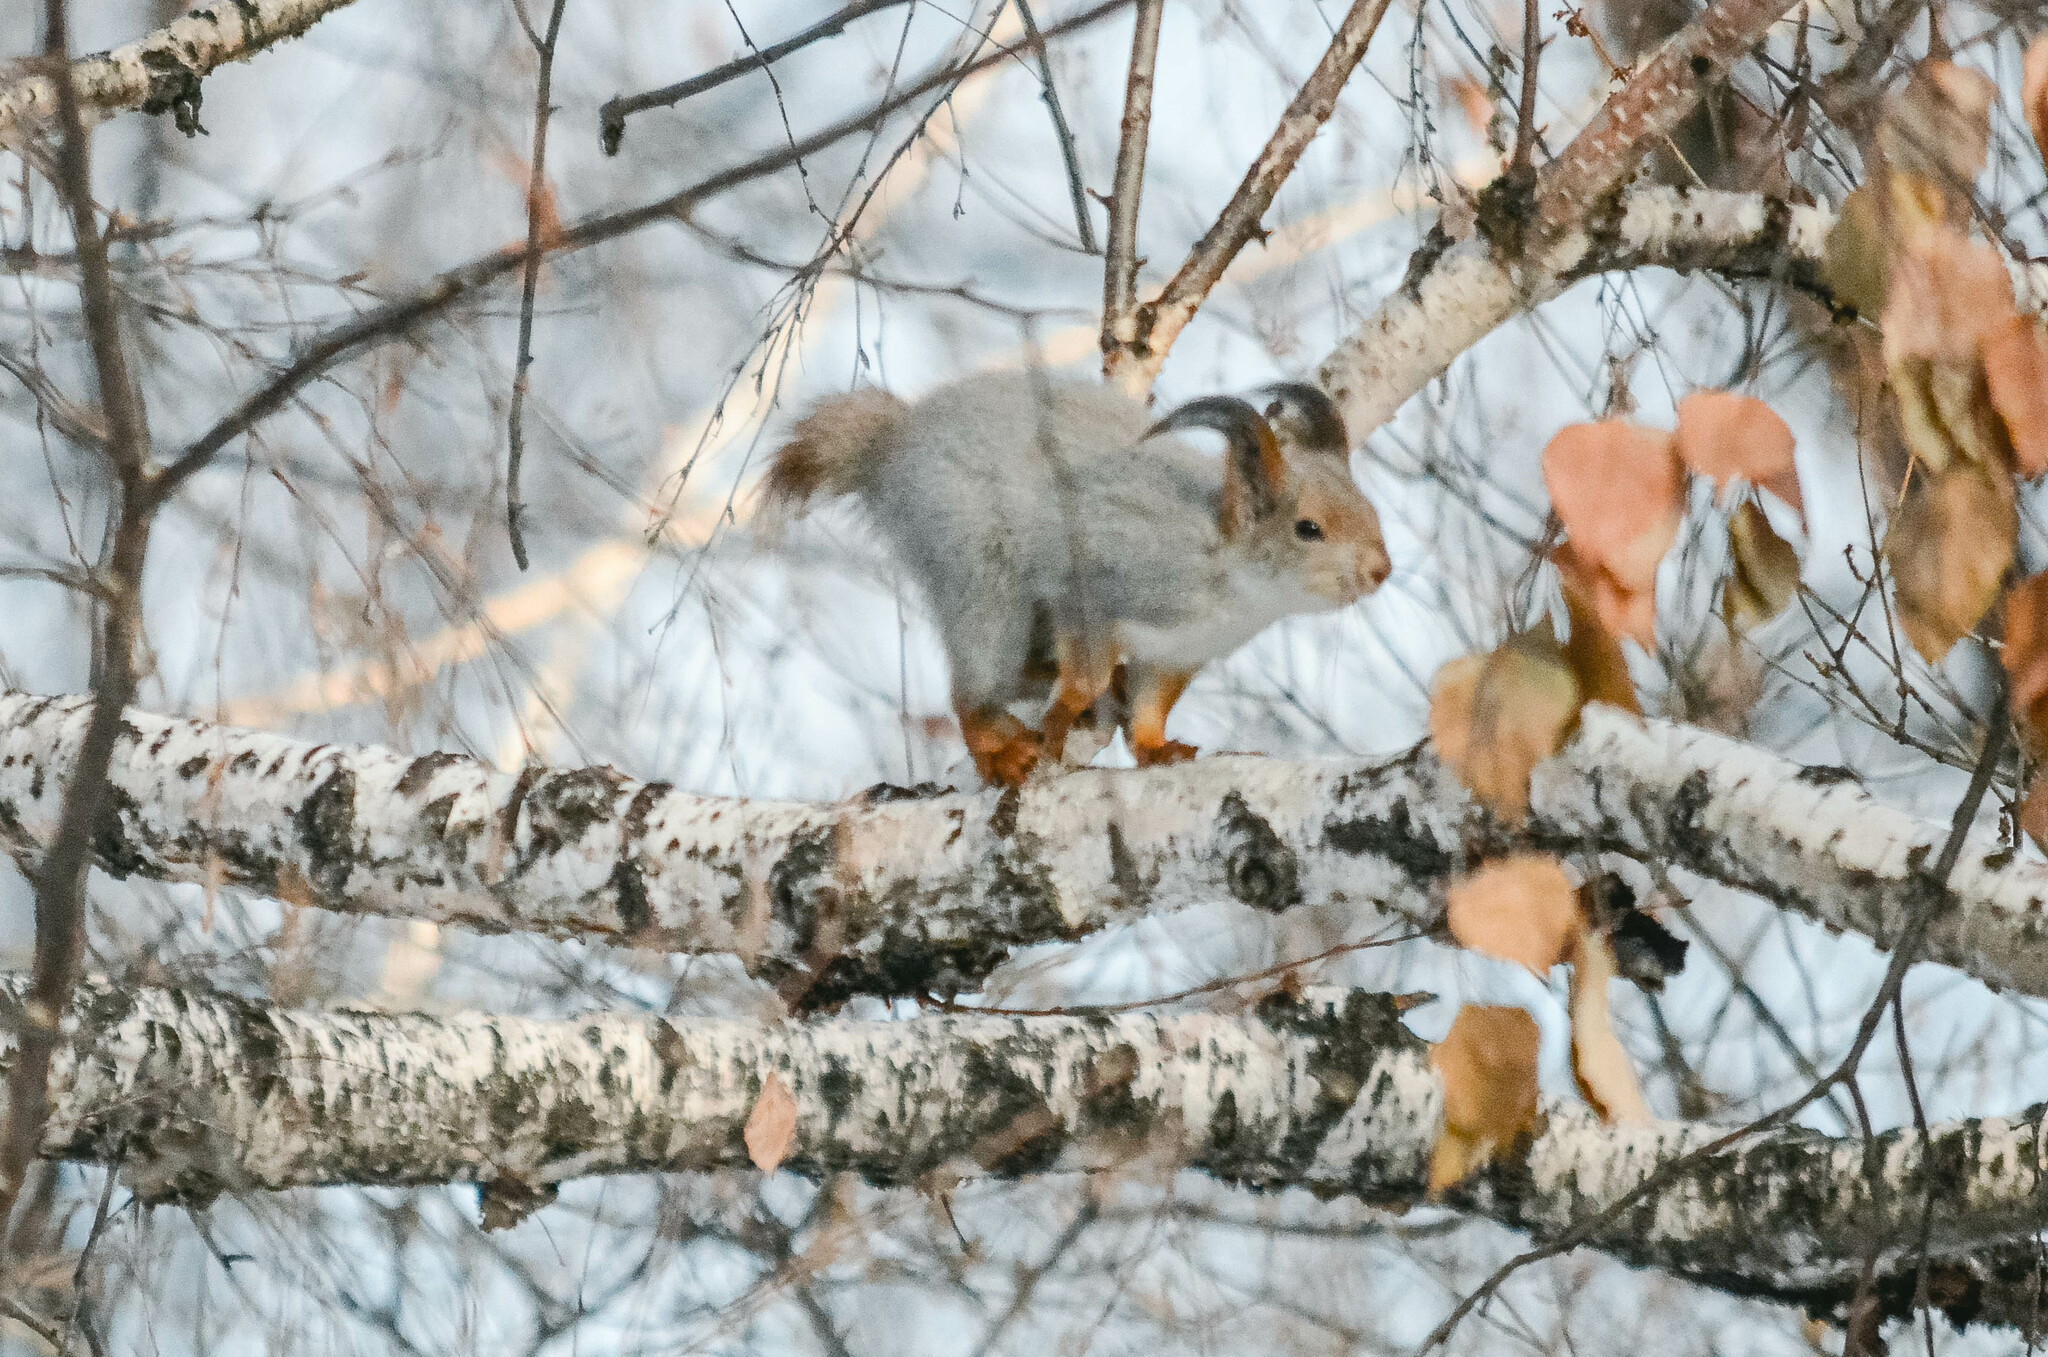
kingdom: Animalia
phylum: Chordata
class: Mammalia
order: Rodentia
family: Sciuridae
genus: Sciurus
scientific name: Sciurus vulgaris
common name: Eurasian red squirrel
